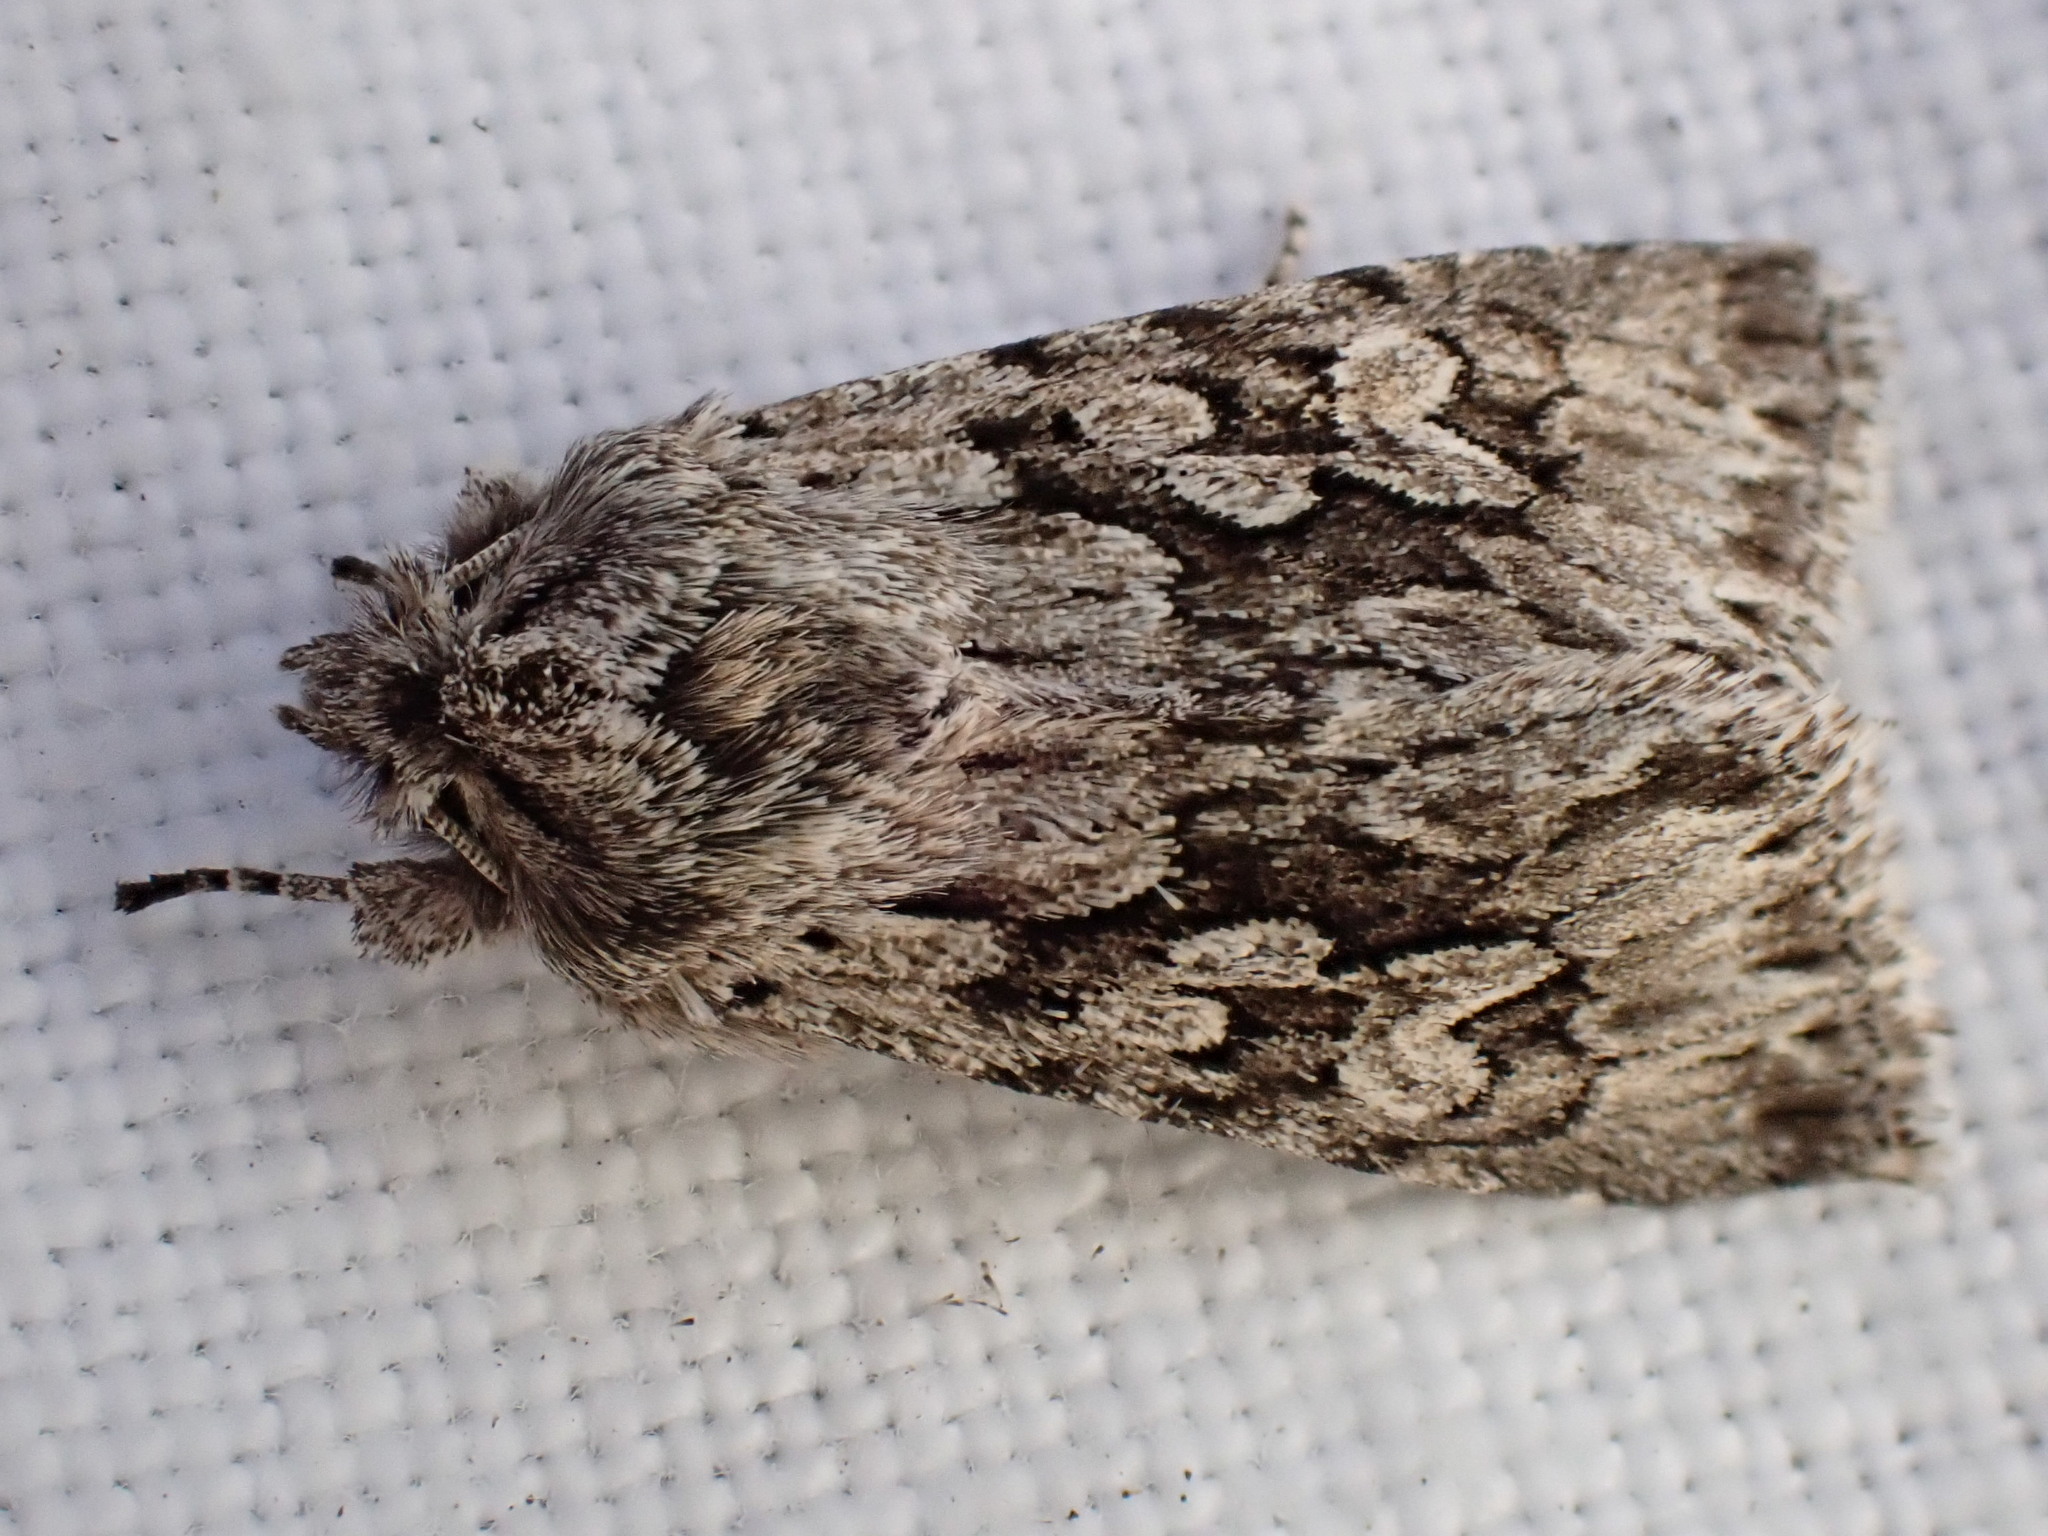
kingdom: Animalia
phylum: Arthropoda
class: Insecta
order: Lepidoptera
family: Noctuidae
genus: Xylocampa
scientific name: Xylocampa areola
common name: Early grey
